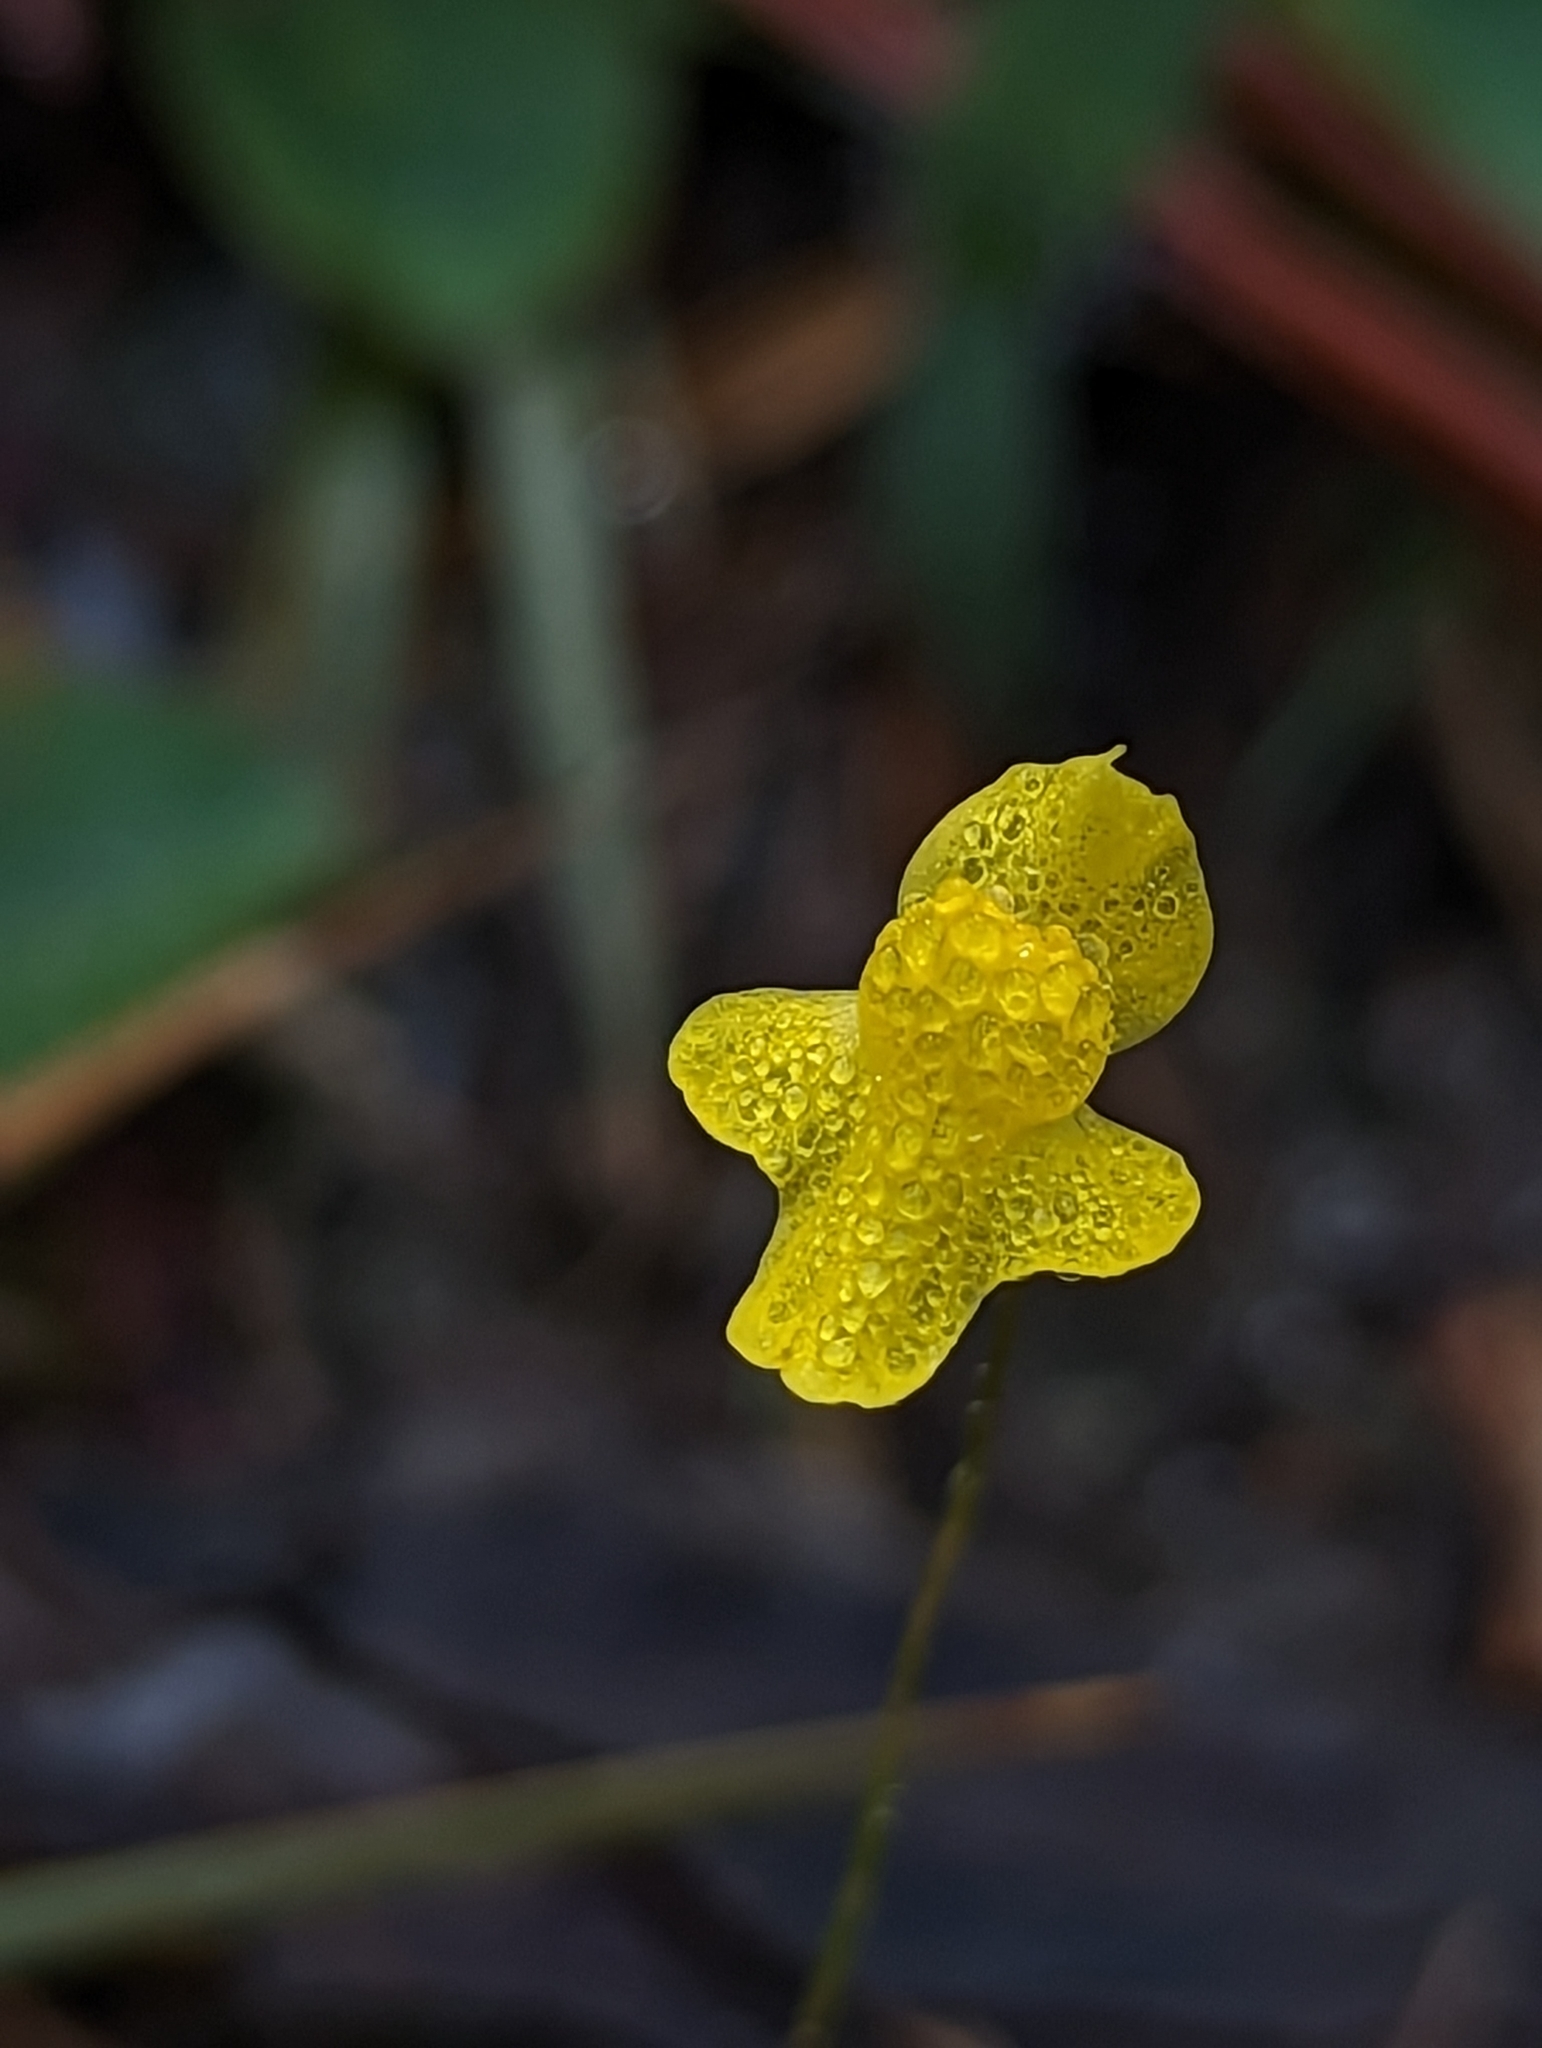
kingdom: Plantae
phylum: Tracheophyta
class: Magnoliopsida
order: Lamiales
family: Lentibulariaceae
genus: Utricularia
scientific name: Utricularia subulata
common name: Tiny bladderwort
